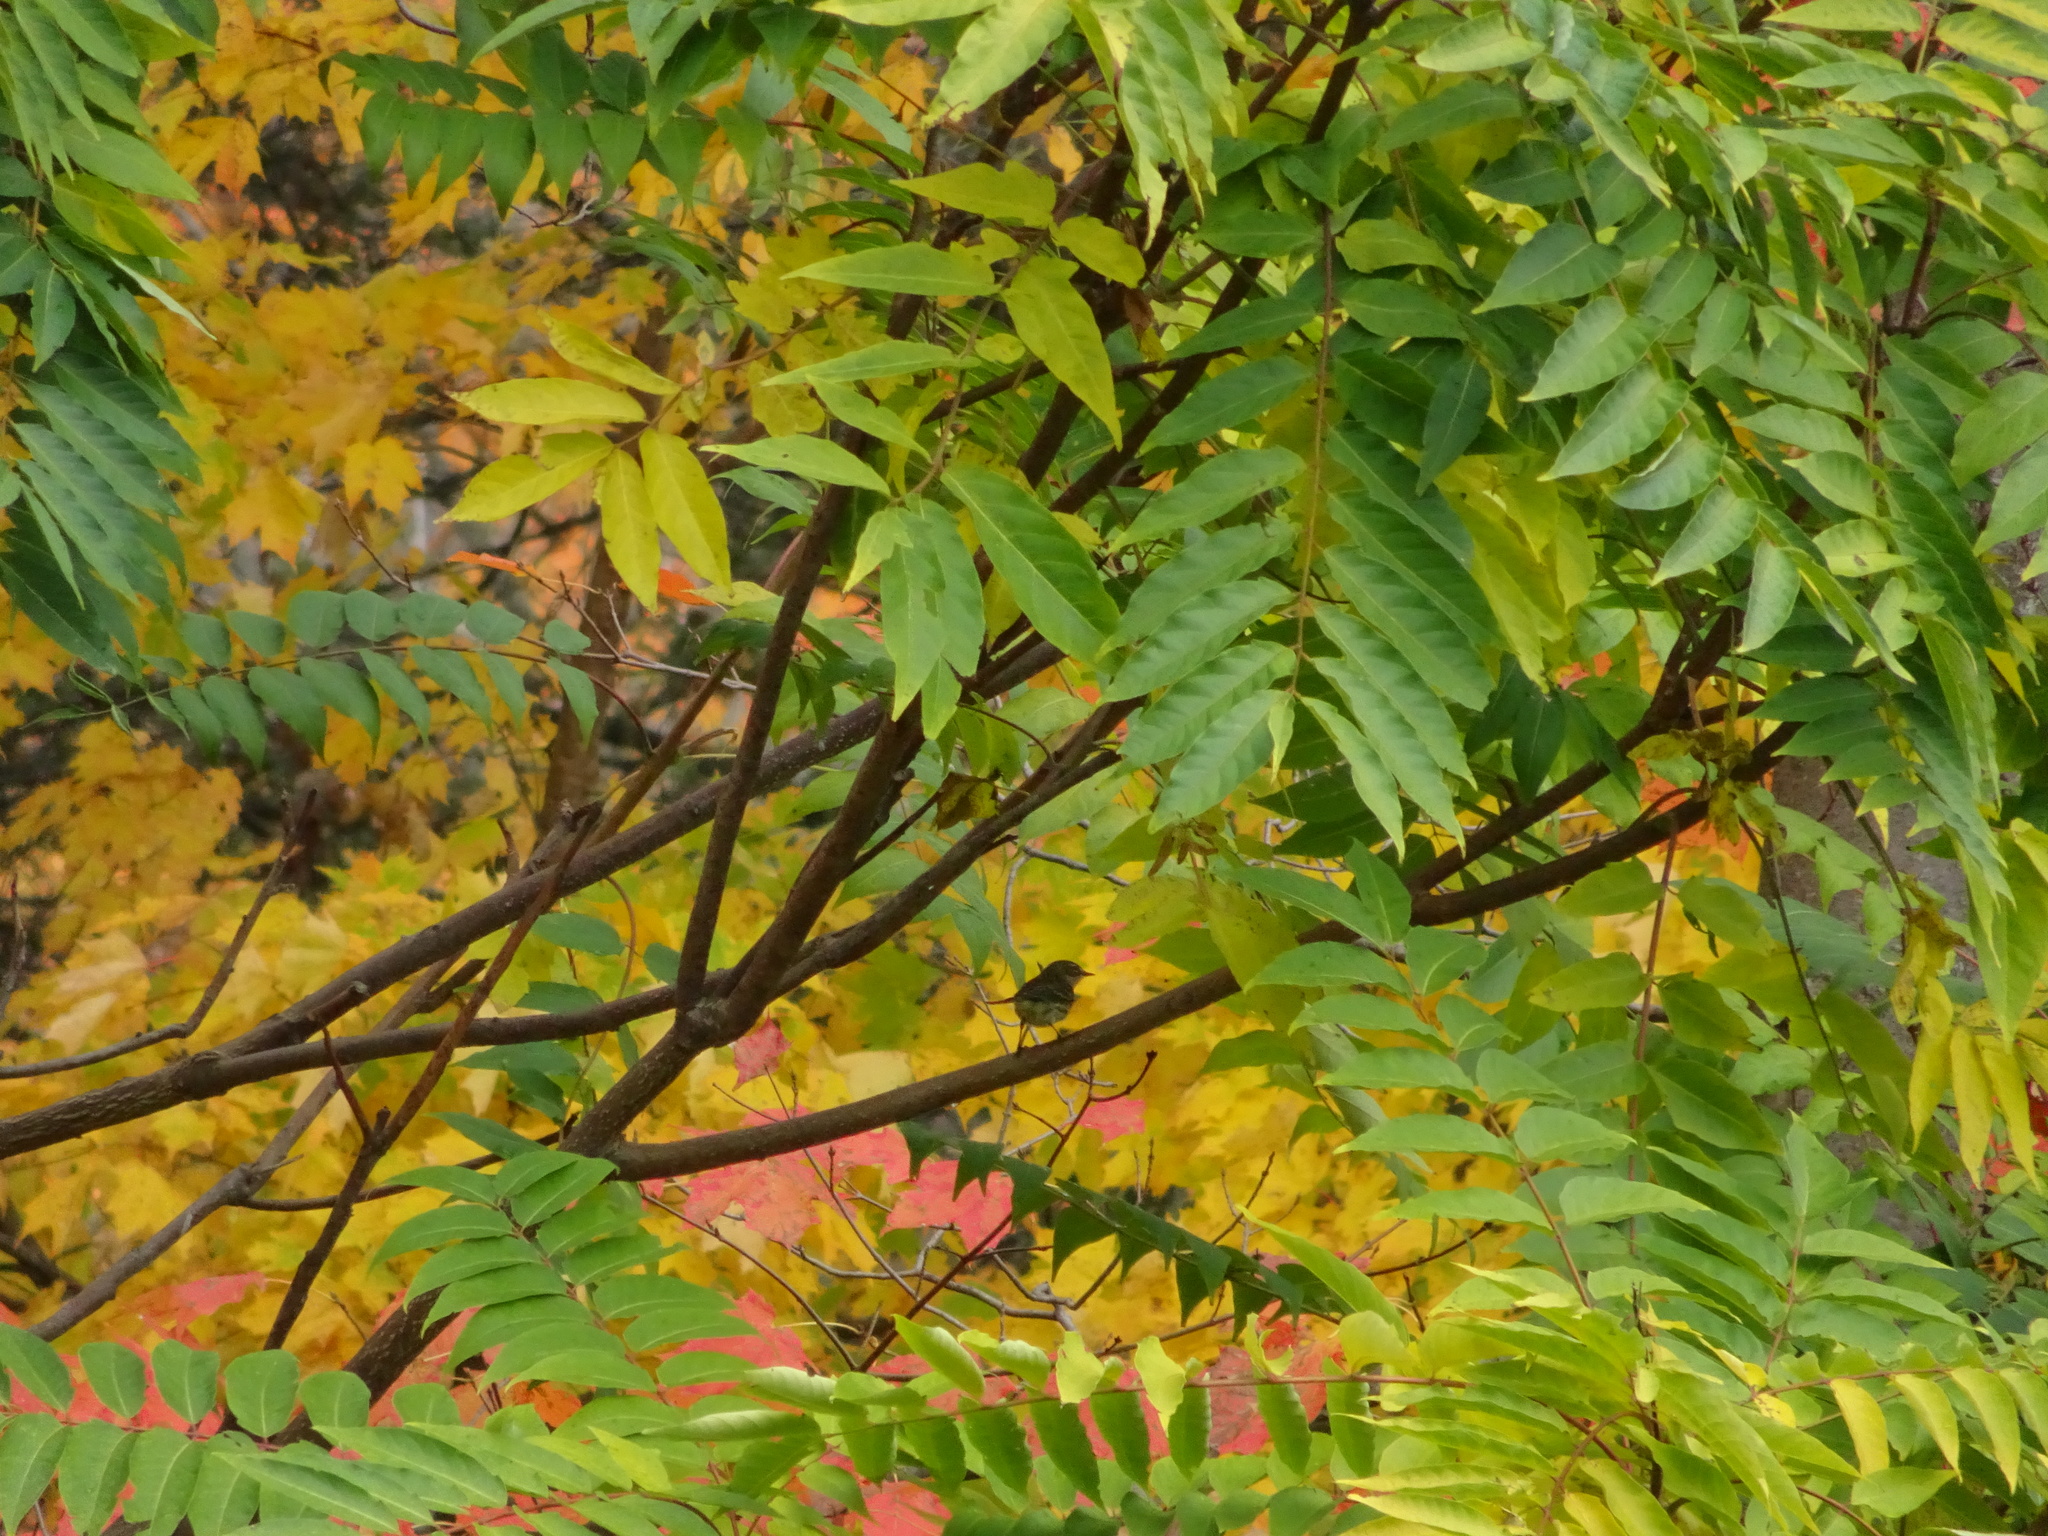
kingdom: Animalia
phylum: Chordata
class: Aves
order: Passeriformes
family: Parulidae
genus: Setophaga
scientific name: Setophaga coronata
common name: Myrtle warbler
